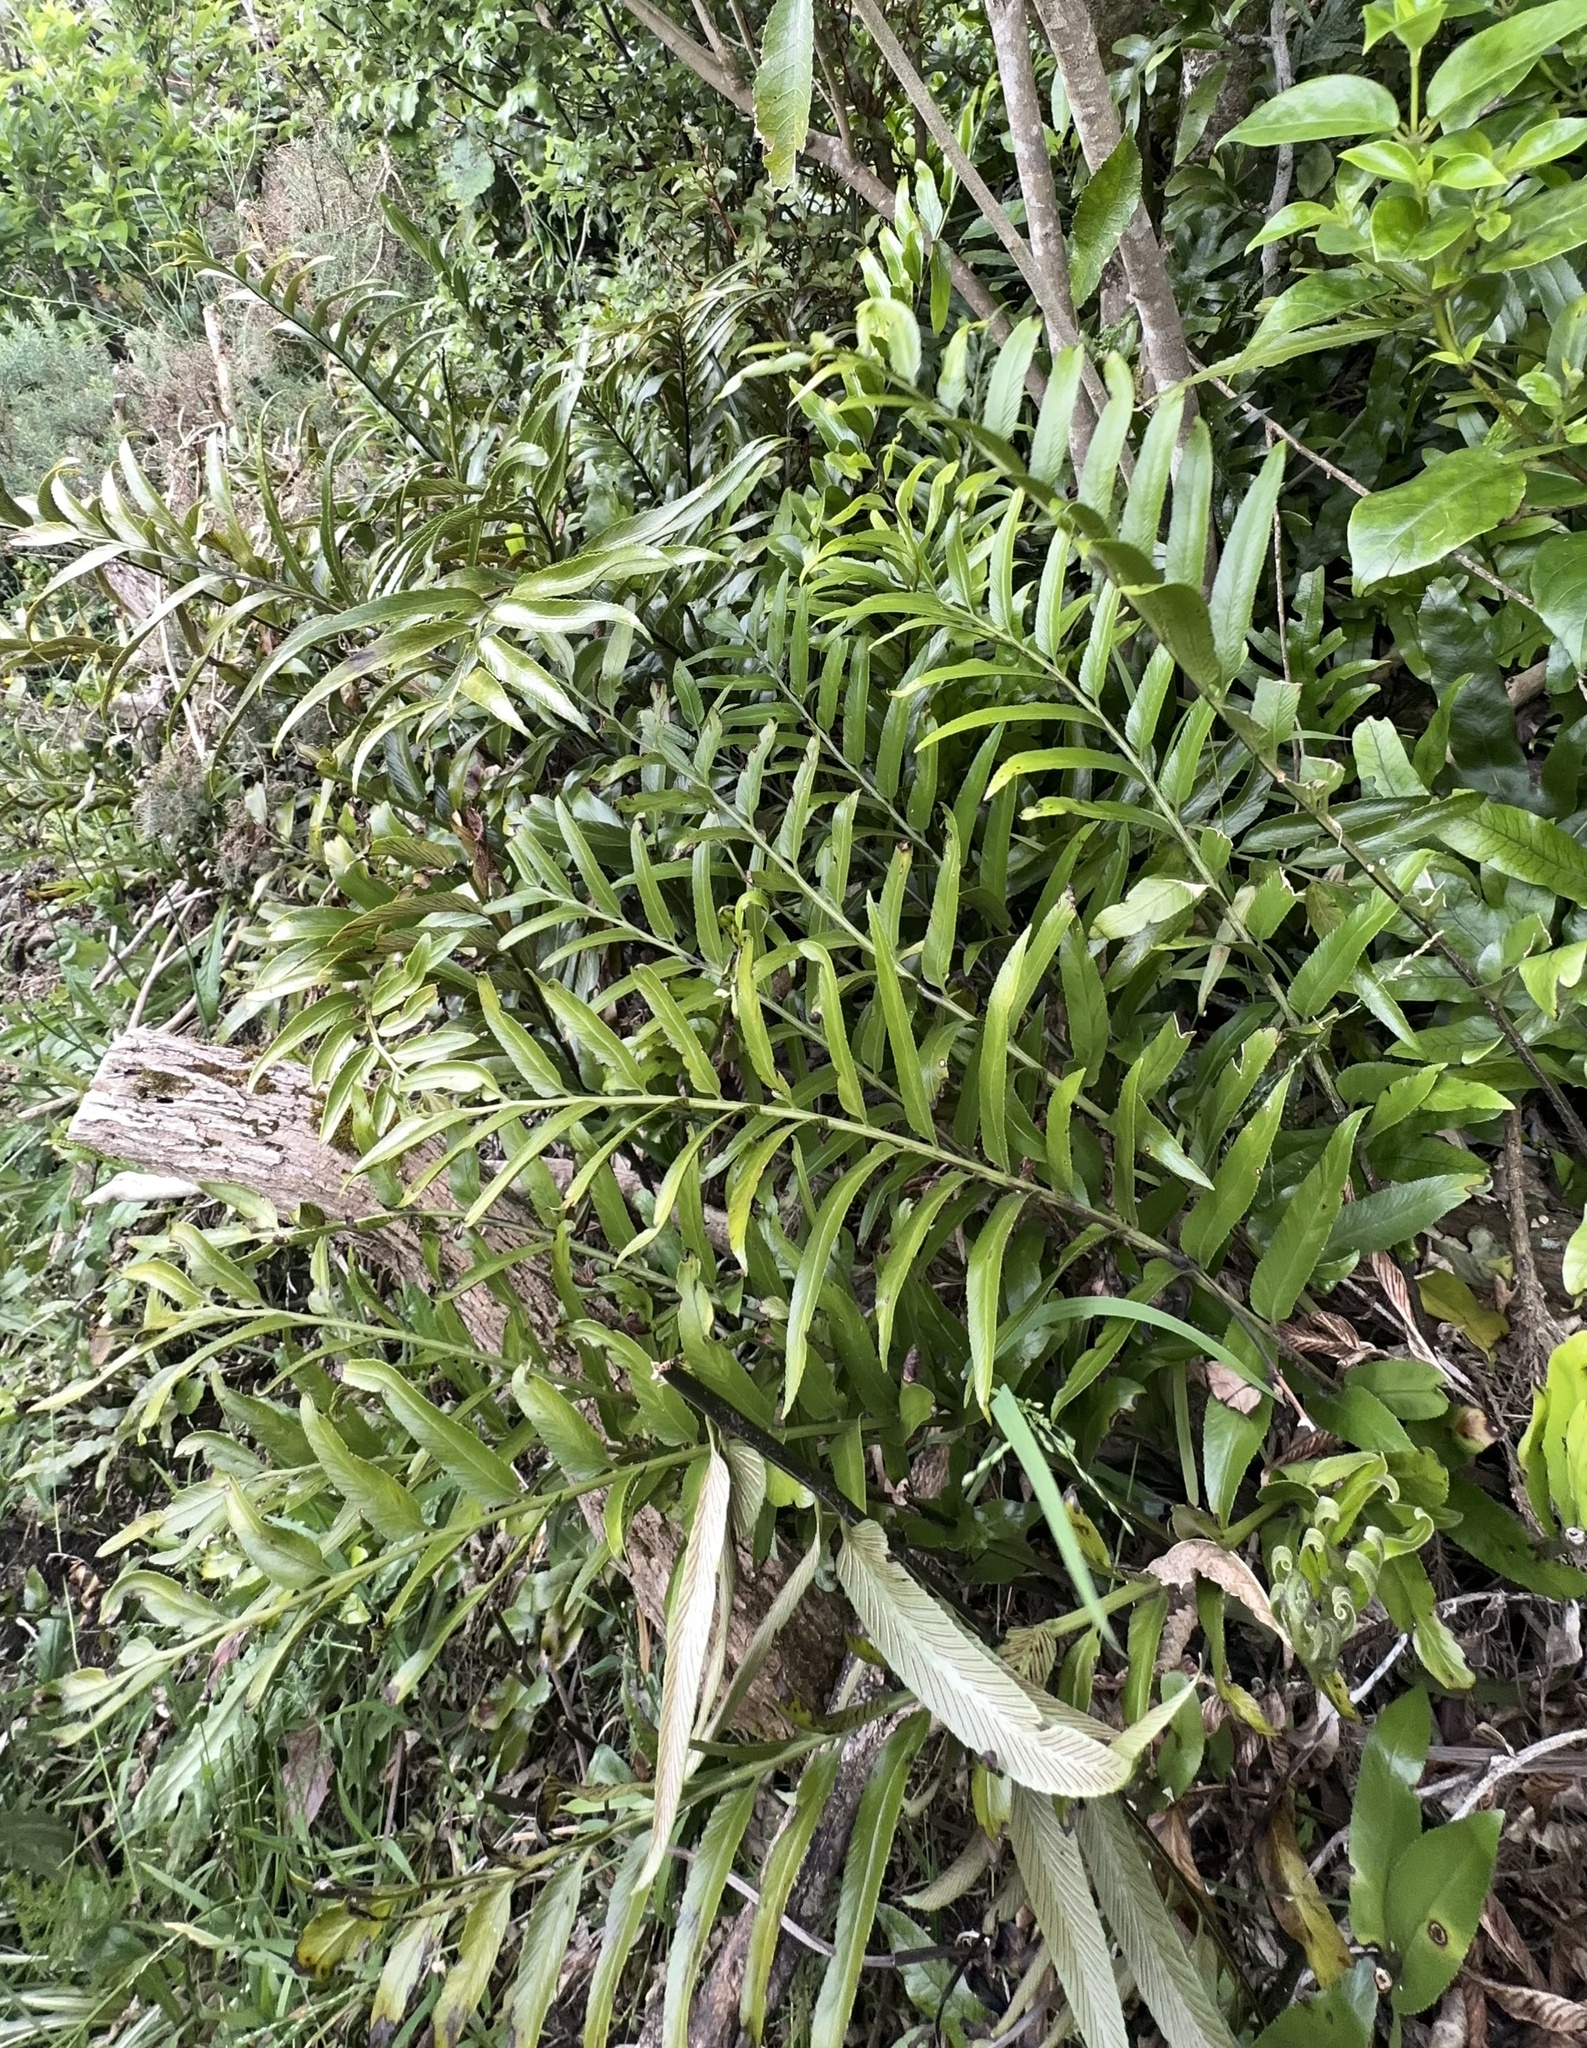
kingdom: Plantae
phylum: Tracheophyta
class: Polypodiopsida
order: Polypodiales
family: Aspleniaceae
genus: Asplenium
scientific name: Asplenium oblongifolium
